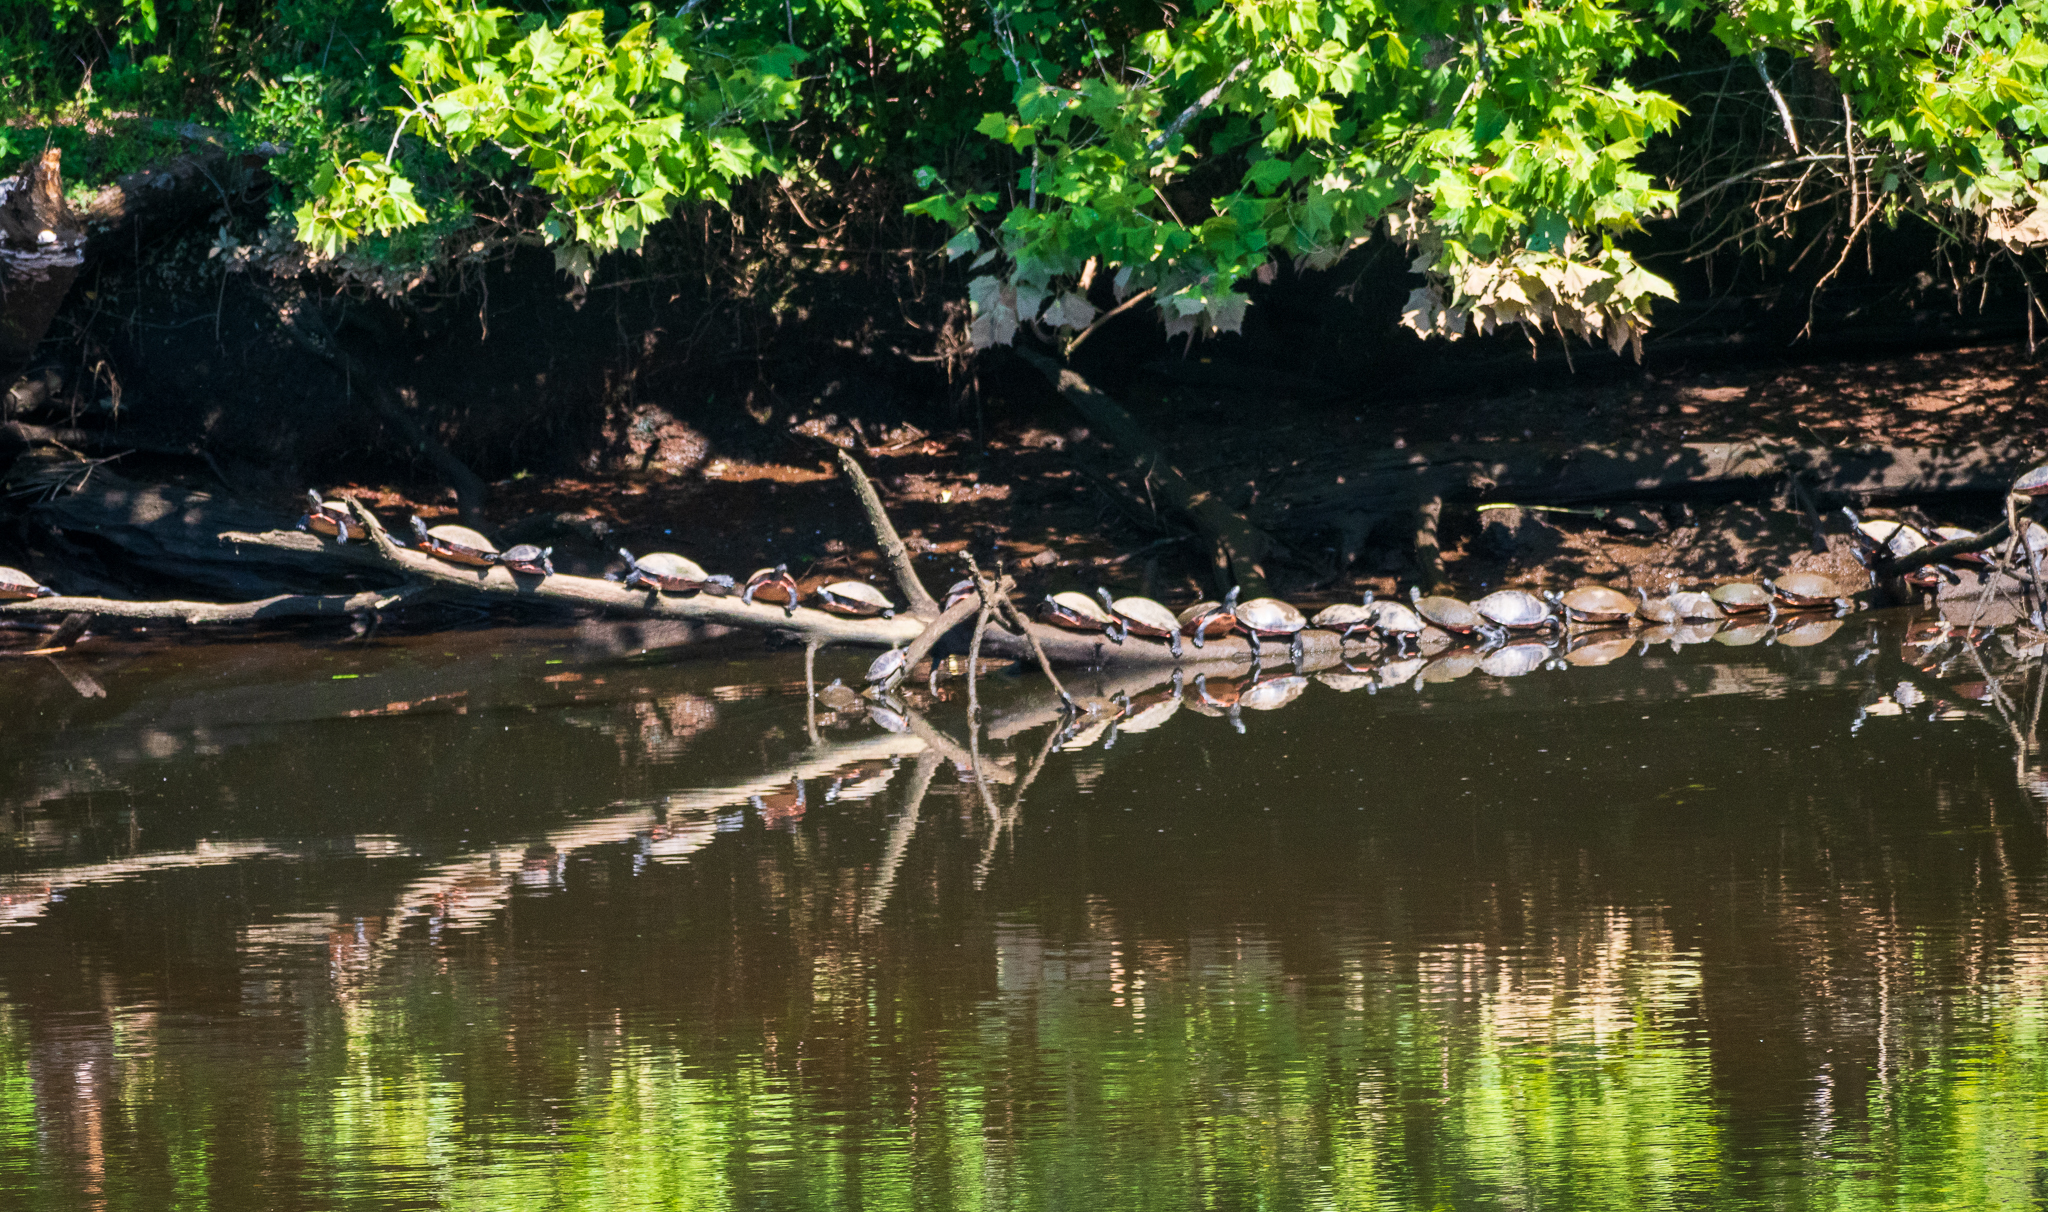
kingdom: Animalia
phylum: Chordata
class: Testudines
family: Emydidae
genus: Pseudemys
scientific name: Pseudemys rubriventris
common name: American red-bellied turtle
